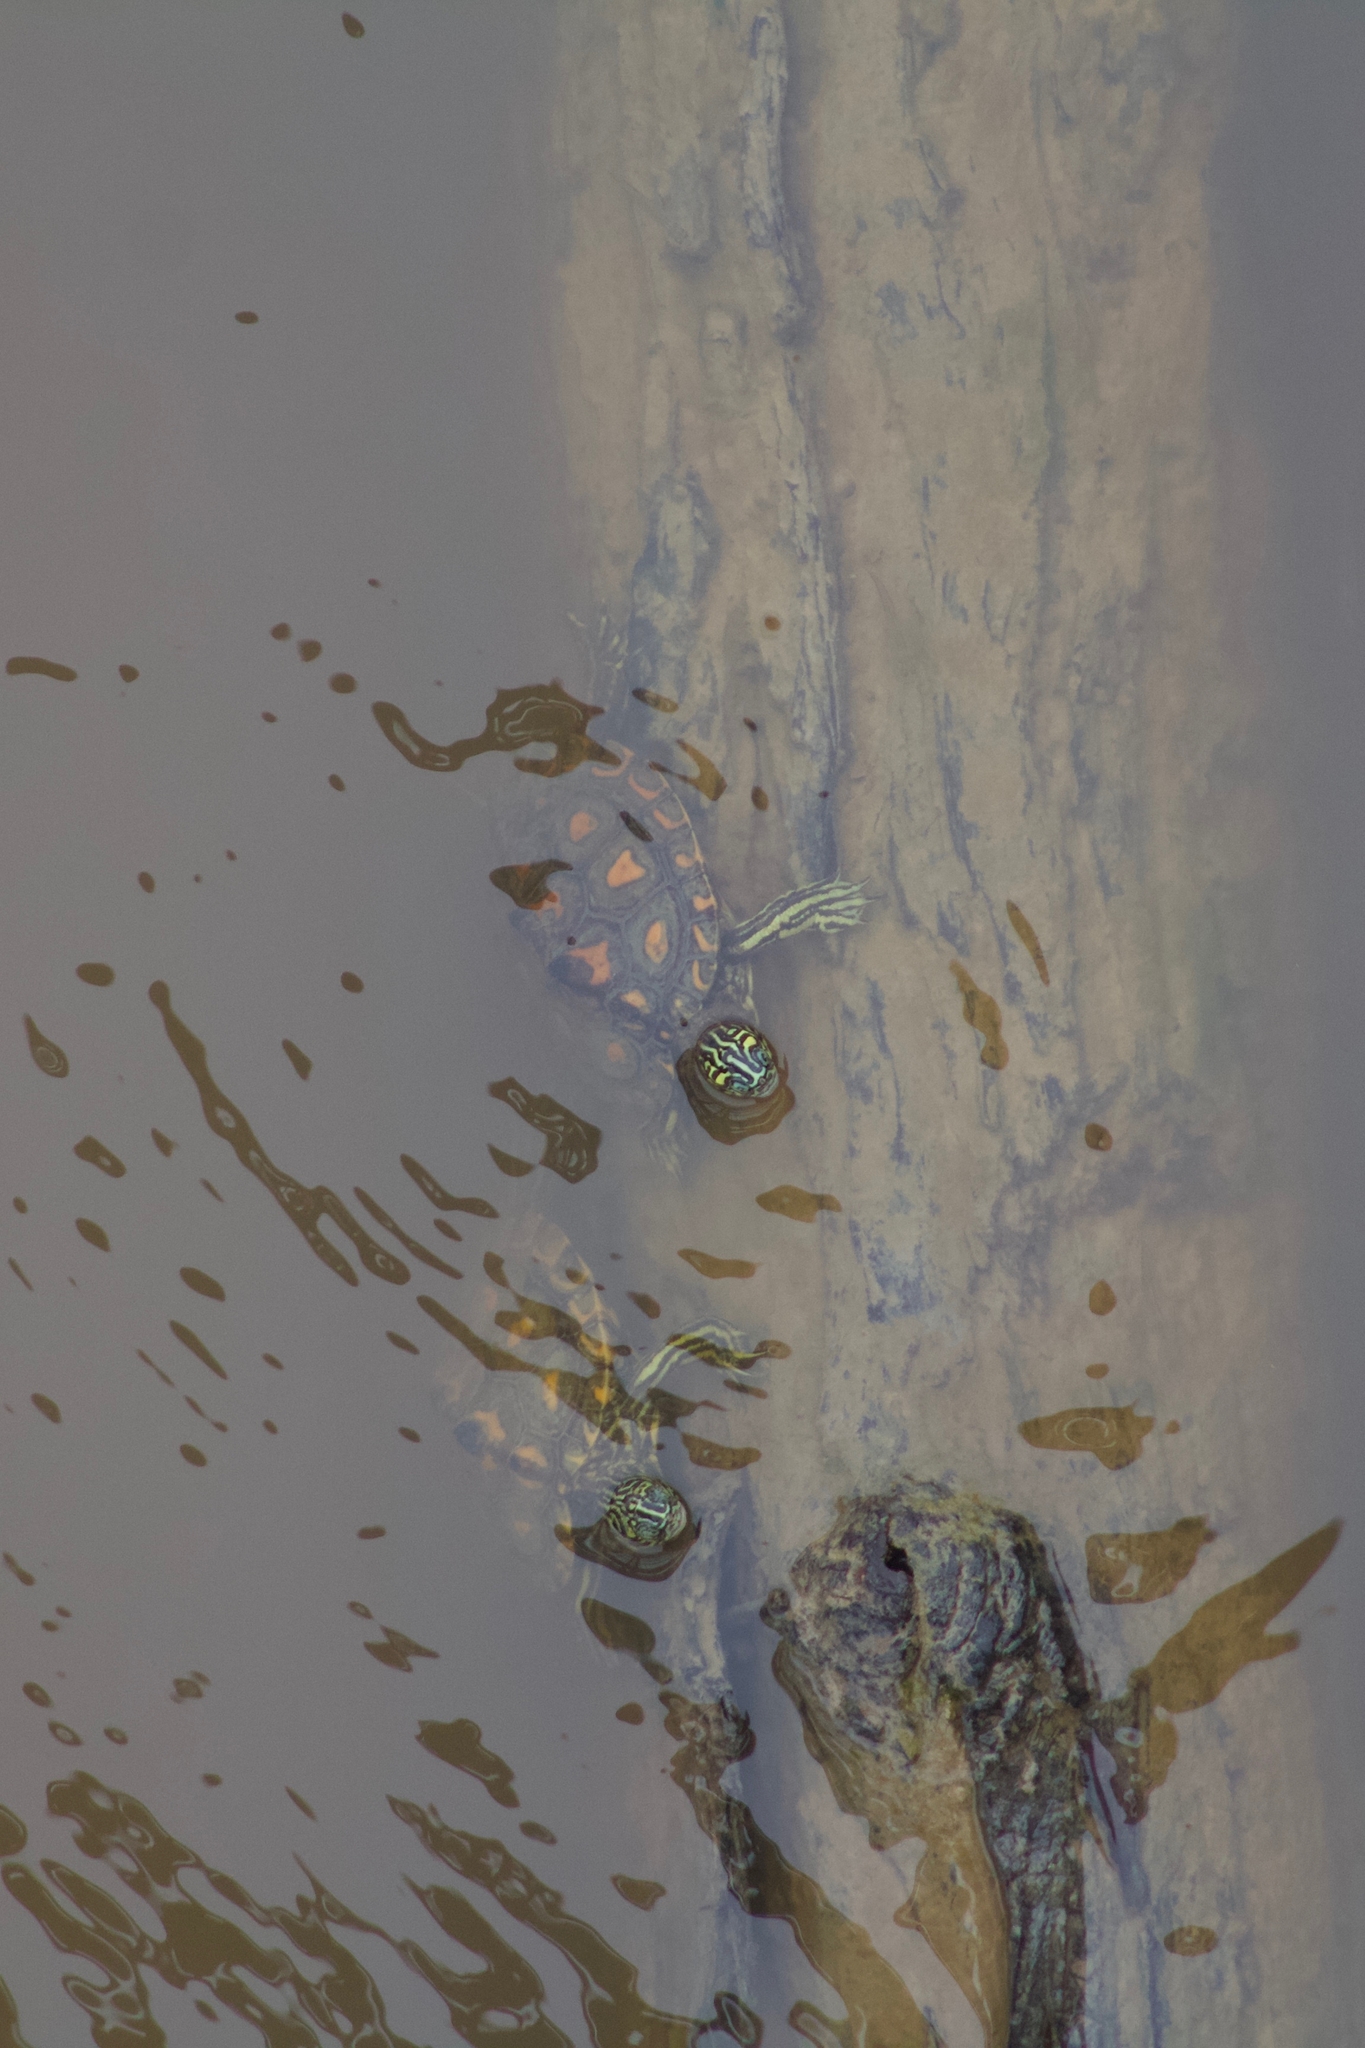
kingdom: Animalia
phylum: Chordata
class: Testudines
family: Emydidae
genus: Graptemys
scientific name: Graptemys flavimaculata
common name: Yellow-blotched map turtle
